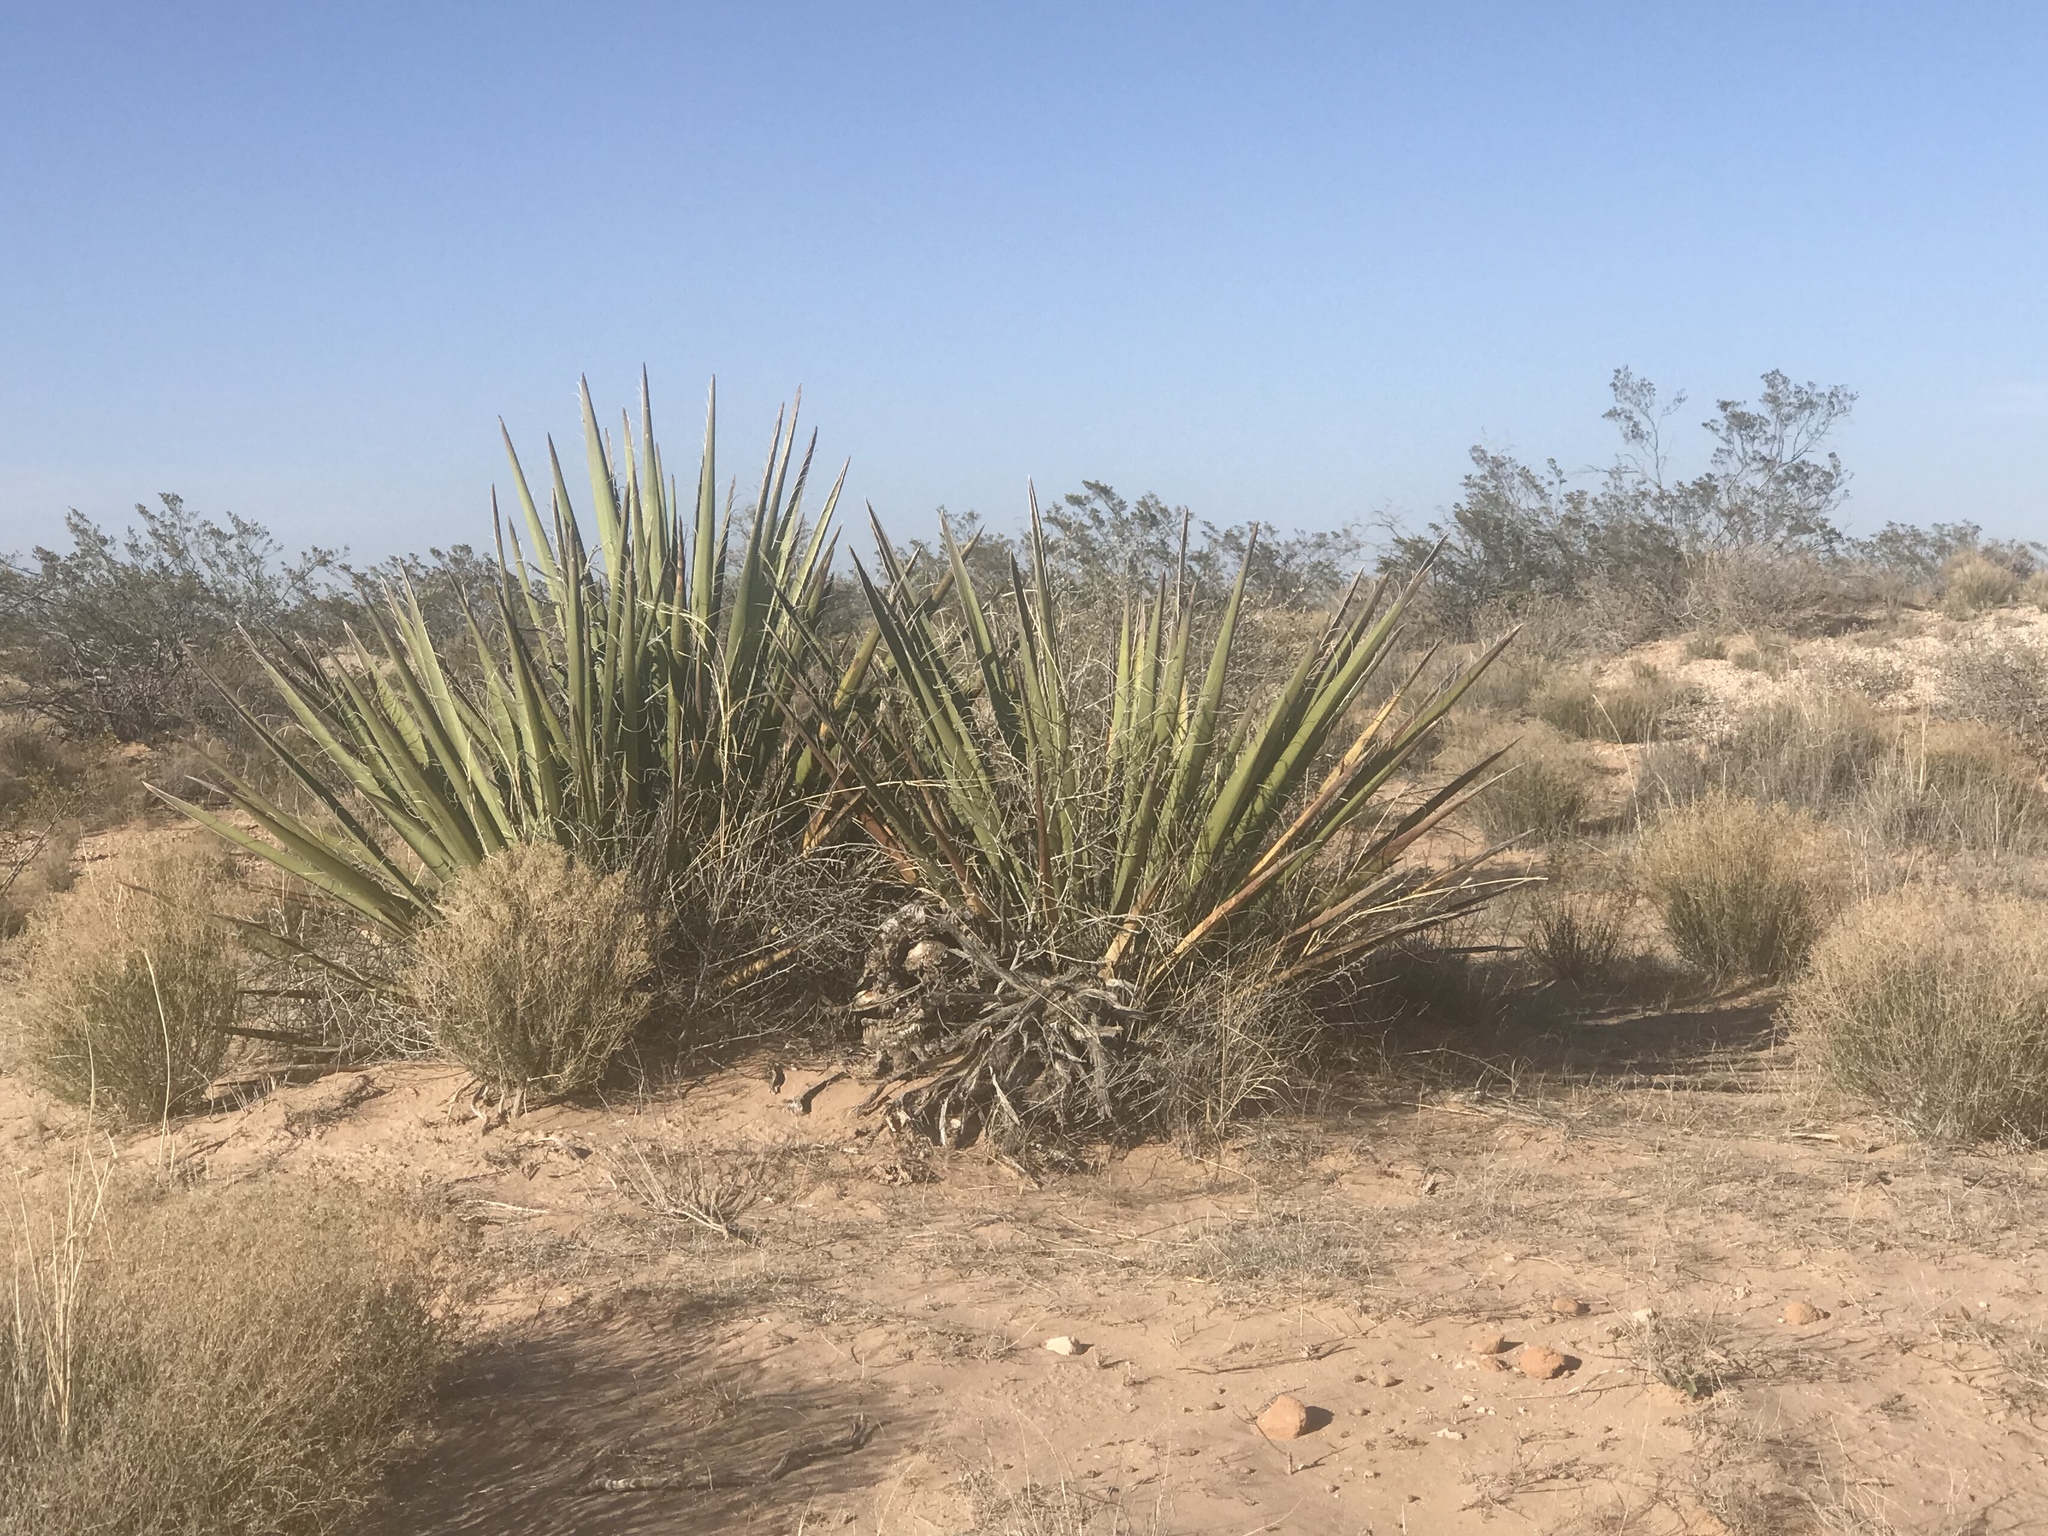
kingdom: Plantae
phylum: Tracheophyta
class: Liliopsida
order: Asparagales
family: Asparagaceae
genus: Yucca
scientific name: Yucca baccata
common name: Banana yucca
